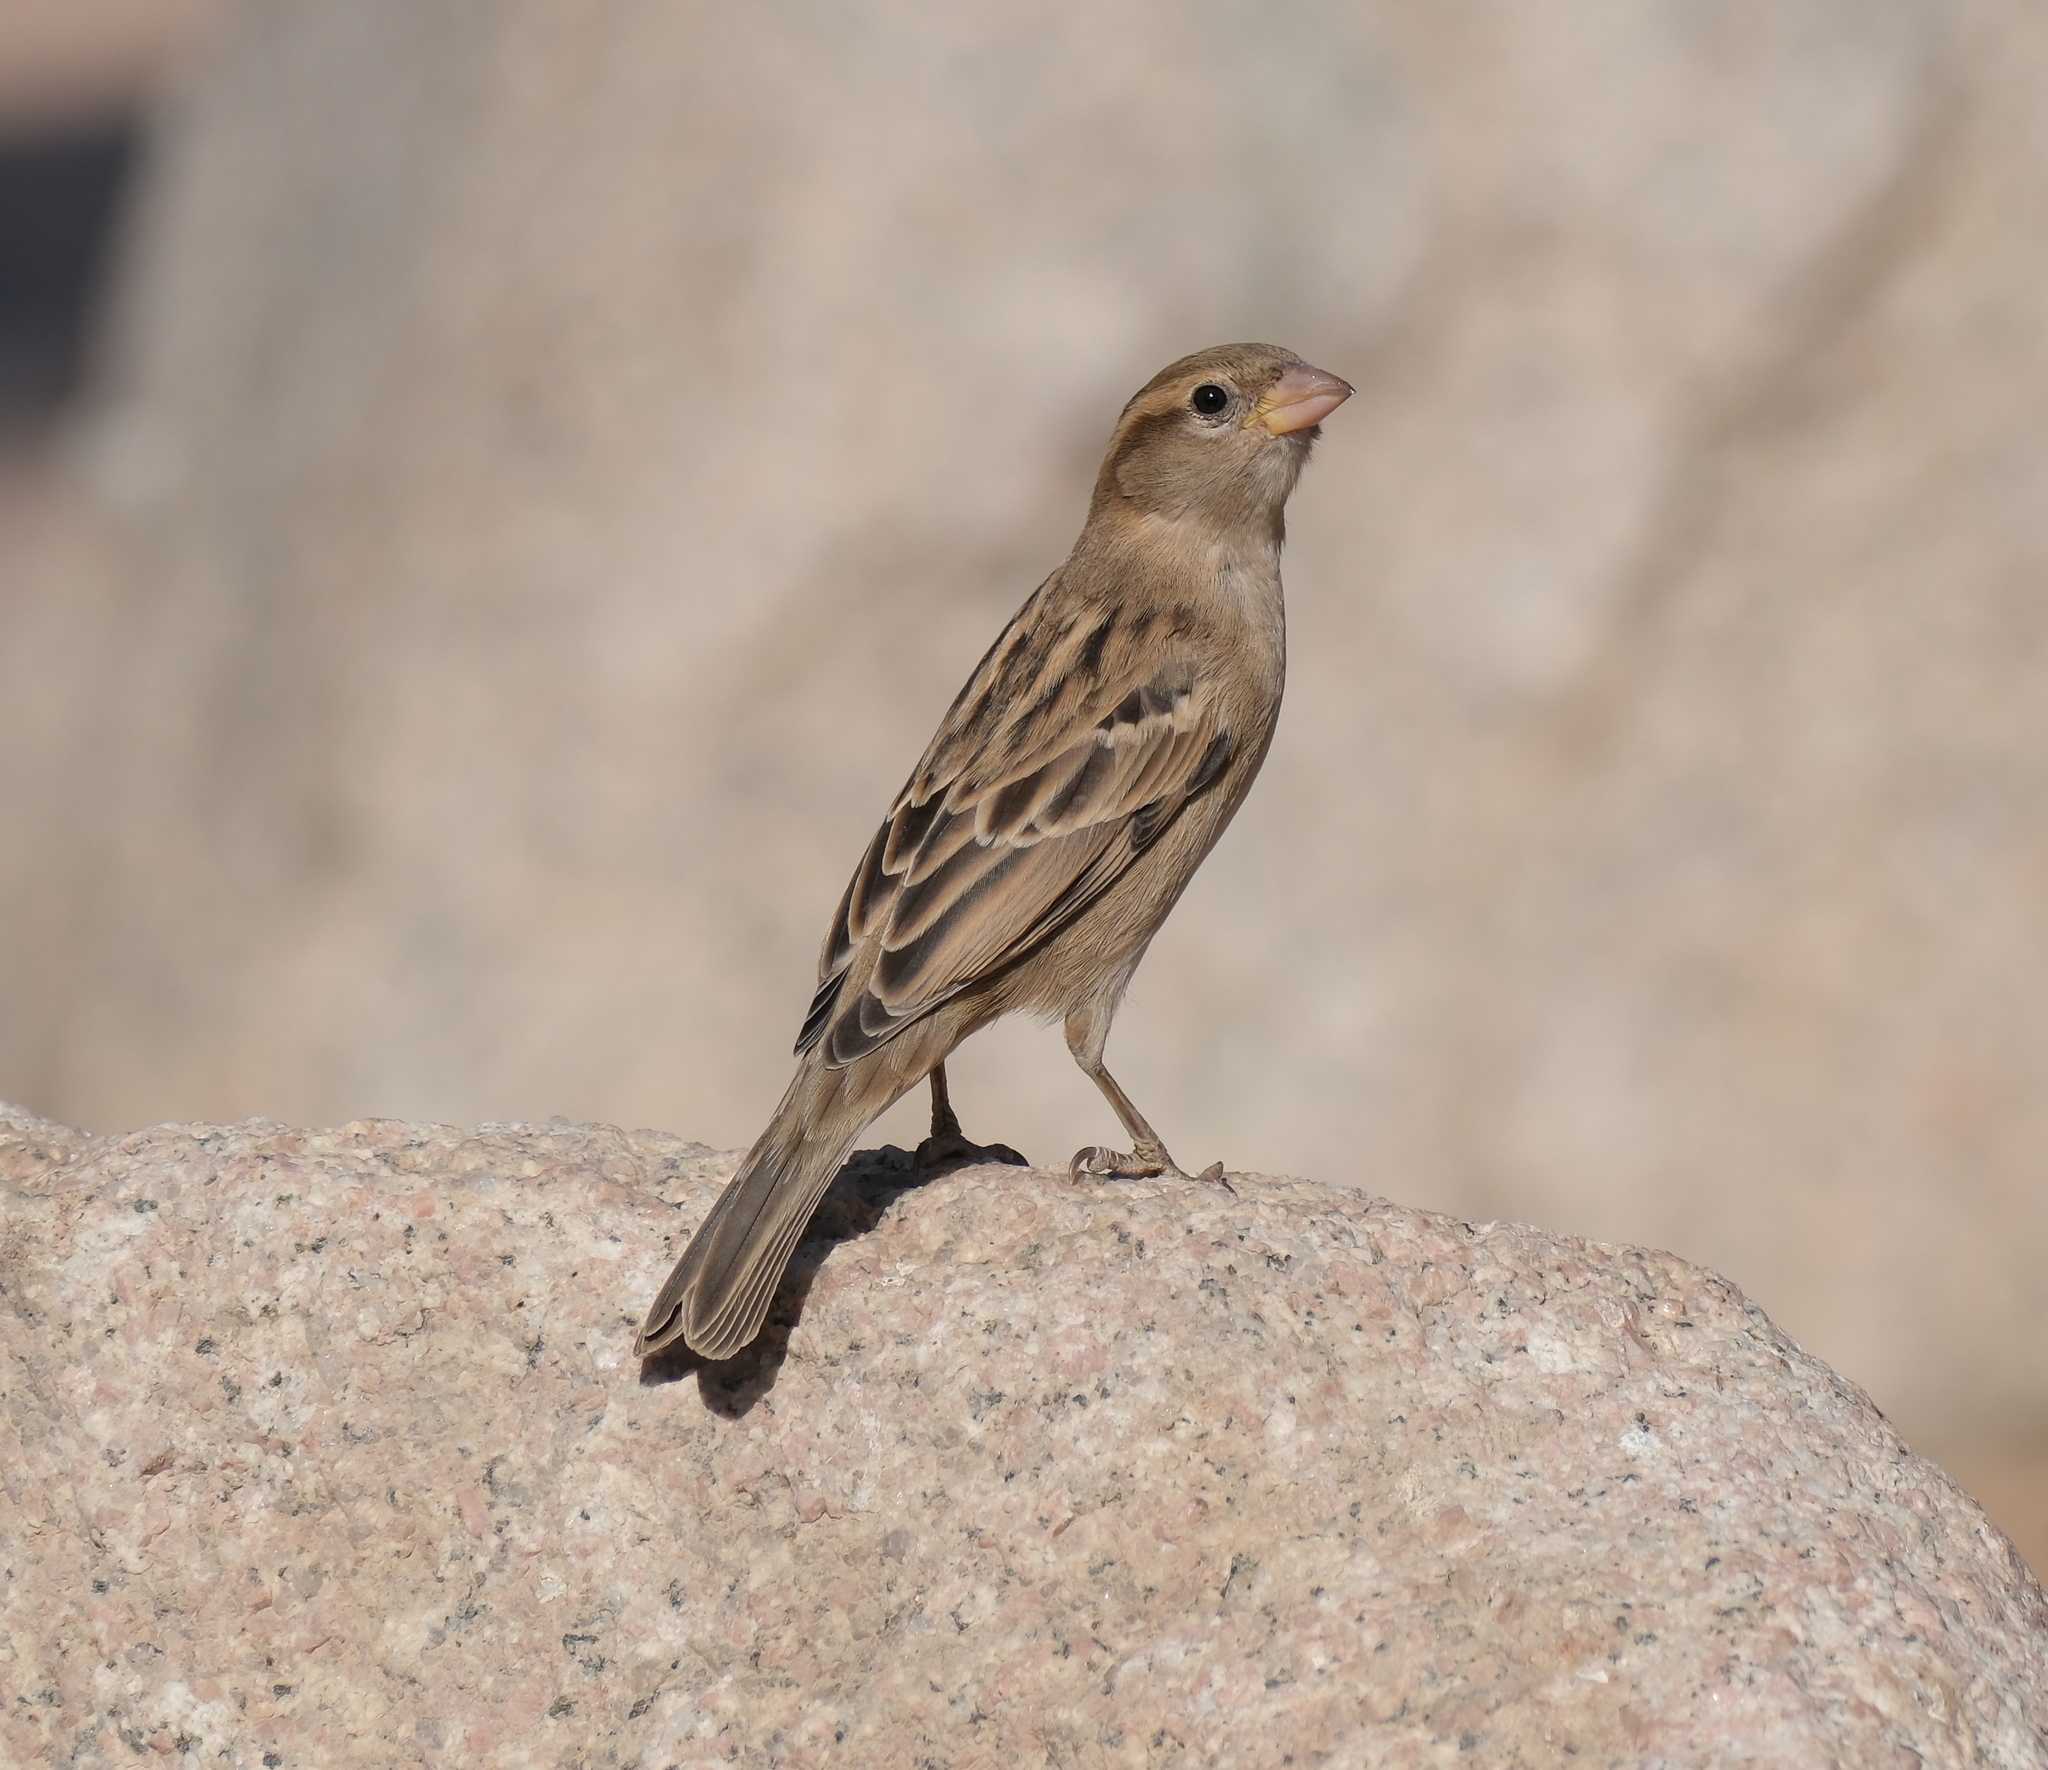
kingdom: Animalia
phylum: Chordata
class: Aves
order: Passeriformes
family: Passeridae
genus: Passer
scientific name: Passer domesticus
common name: House sparrow
